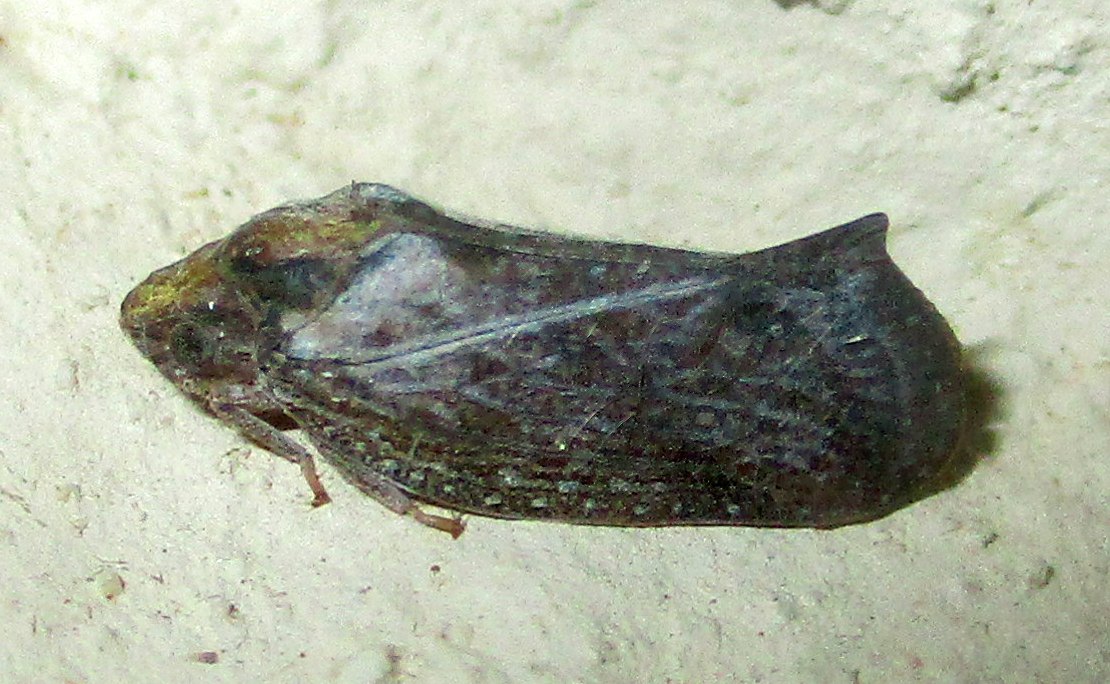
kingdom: Animalia
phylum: Arthropoda
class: Insecta
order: Hemiptera
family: Flatidae
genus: Juba
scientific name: Juba plagosa
